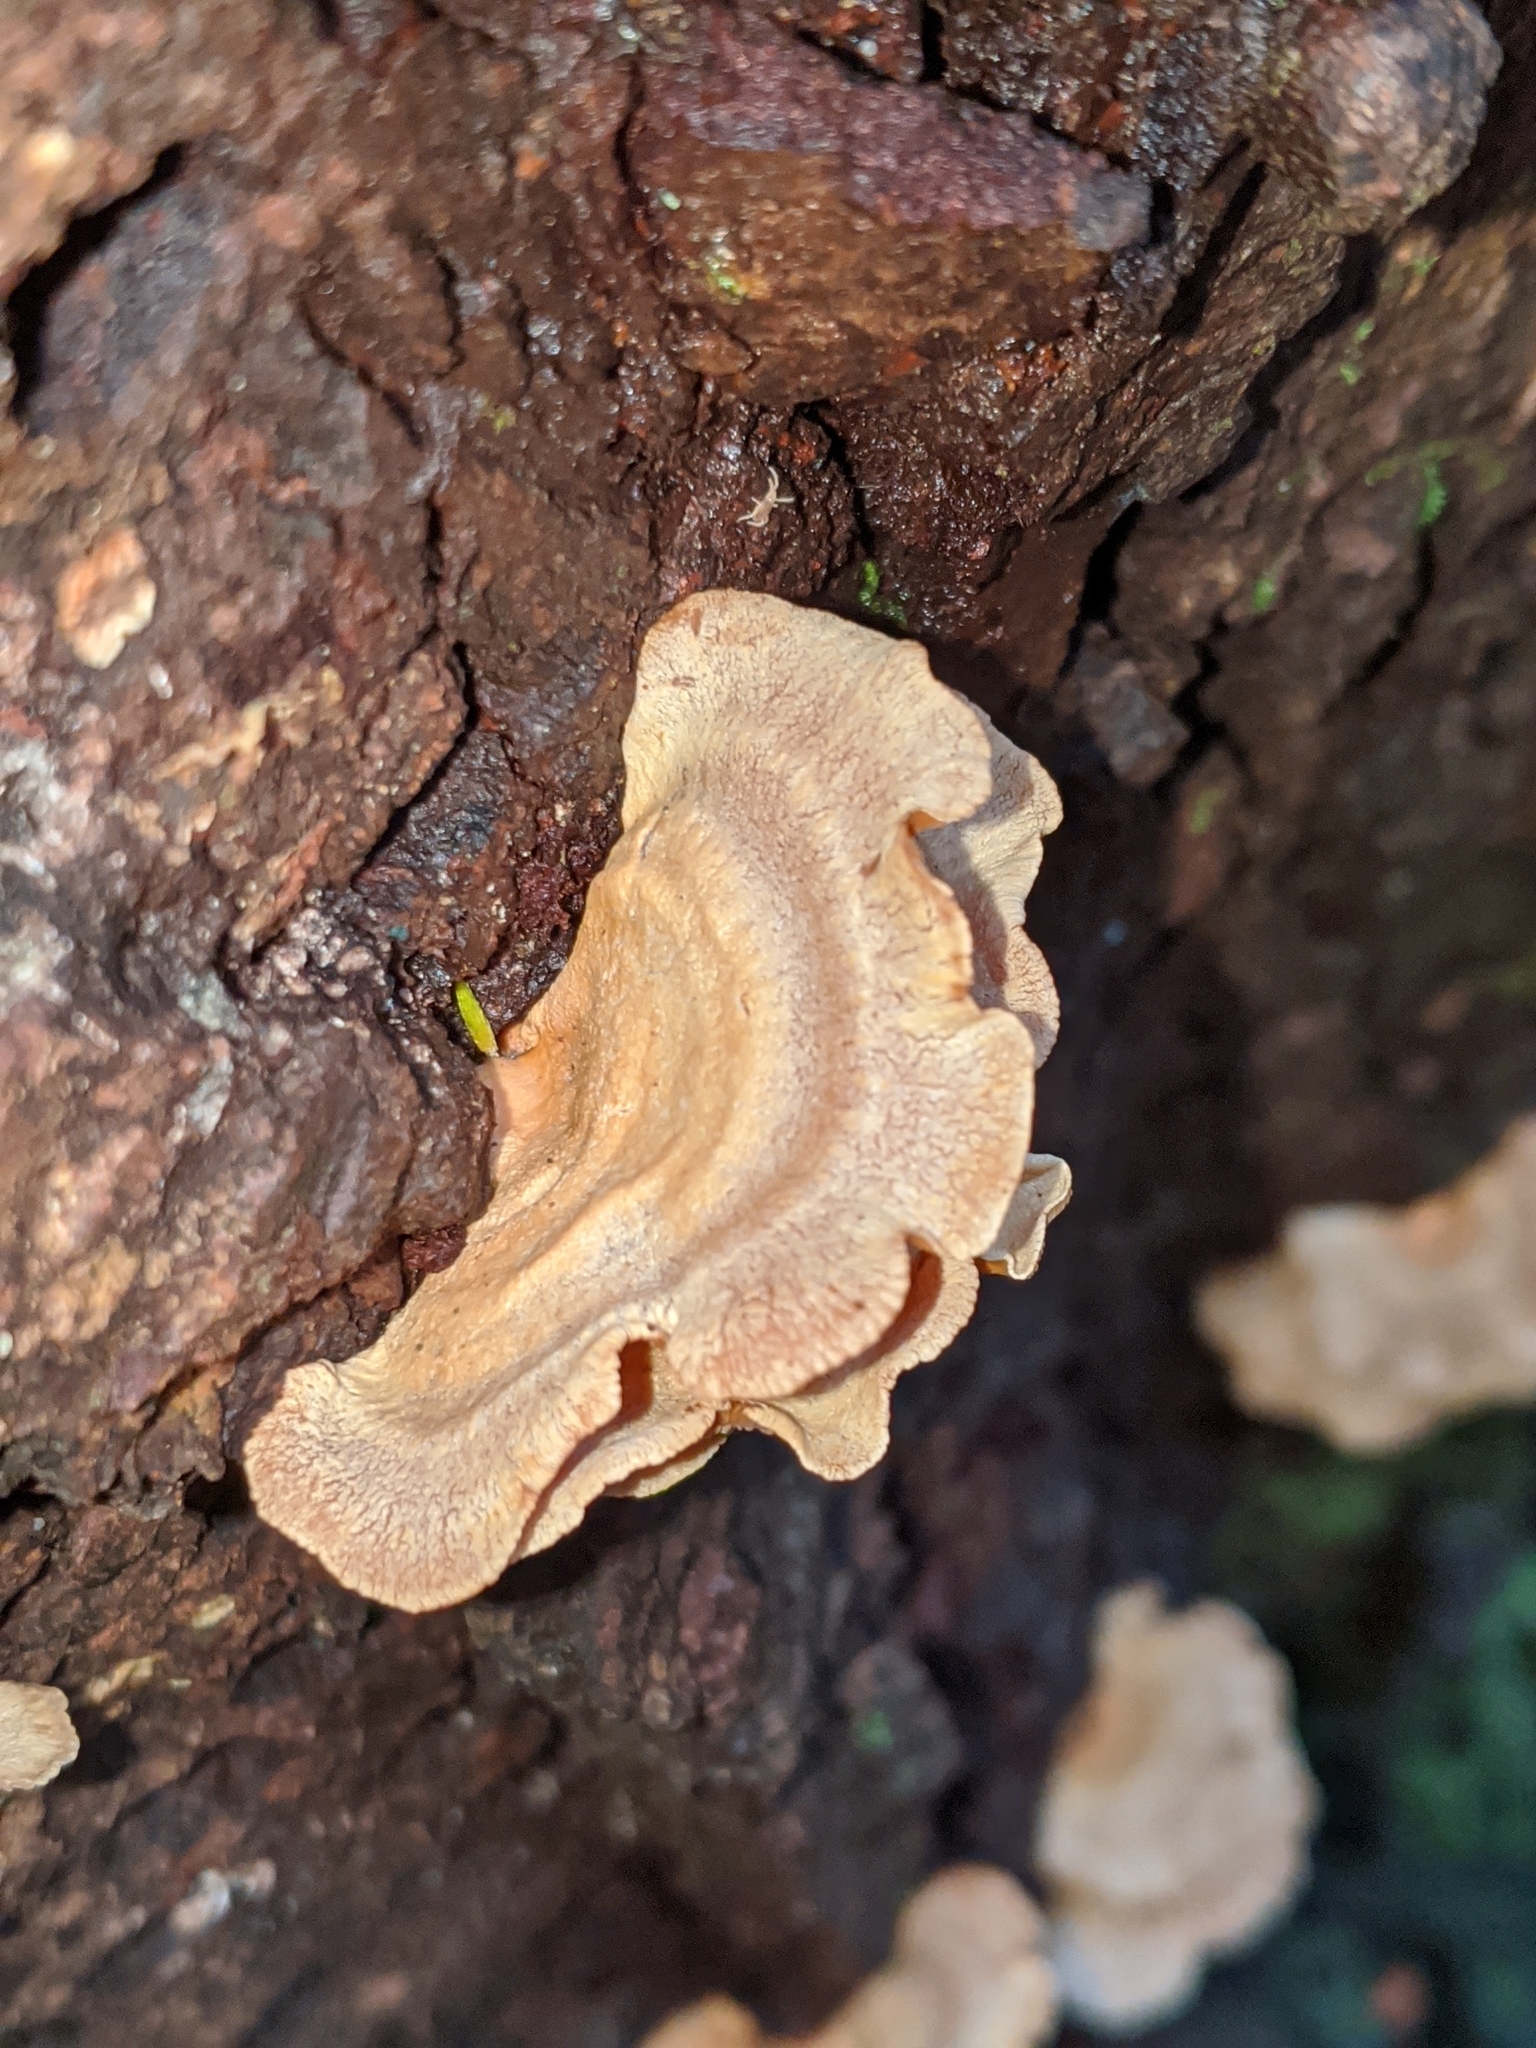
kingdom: Fungi
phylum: Basidiomycota
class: Agaricomycetes
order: Agaricales
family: Mycenaceae
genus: Panellus
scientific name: Panellus stipticus
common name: Bitter oysterling
